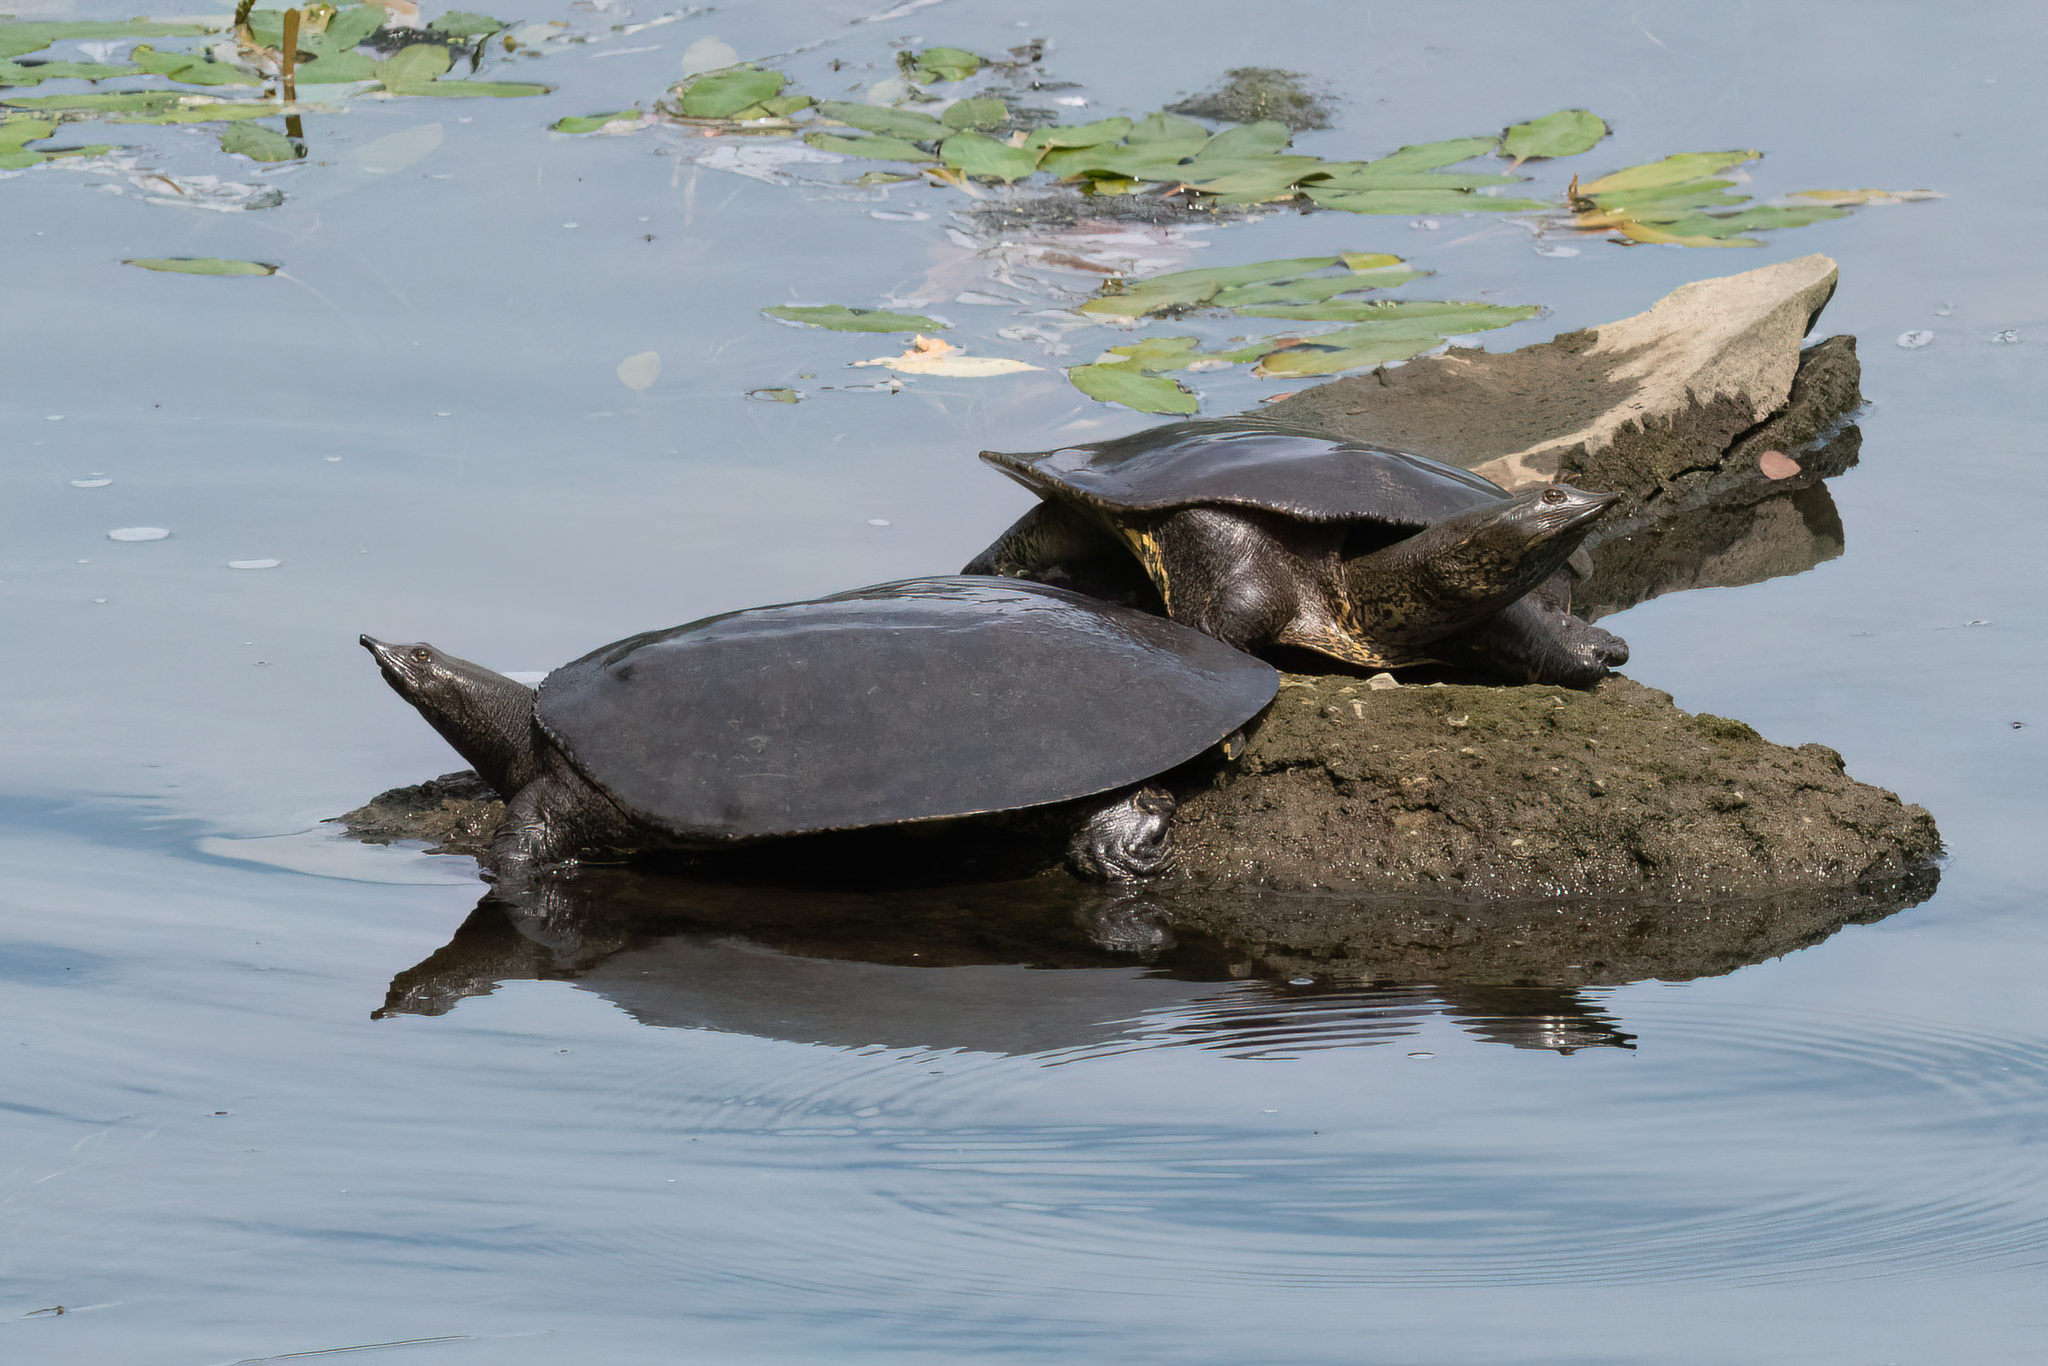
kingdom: Animalia
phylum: Chordata
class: Testudines
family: Trionychidae
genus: Apalone
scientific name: Apalone spinifera
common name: Spiny softshell turtle
